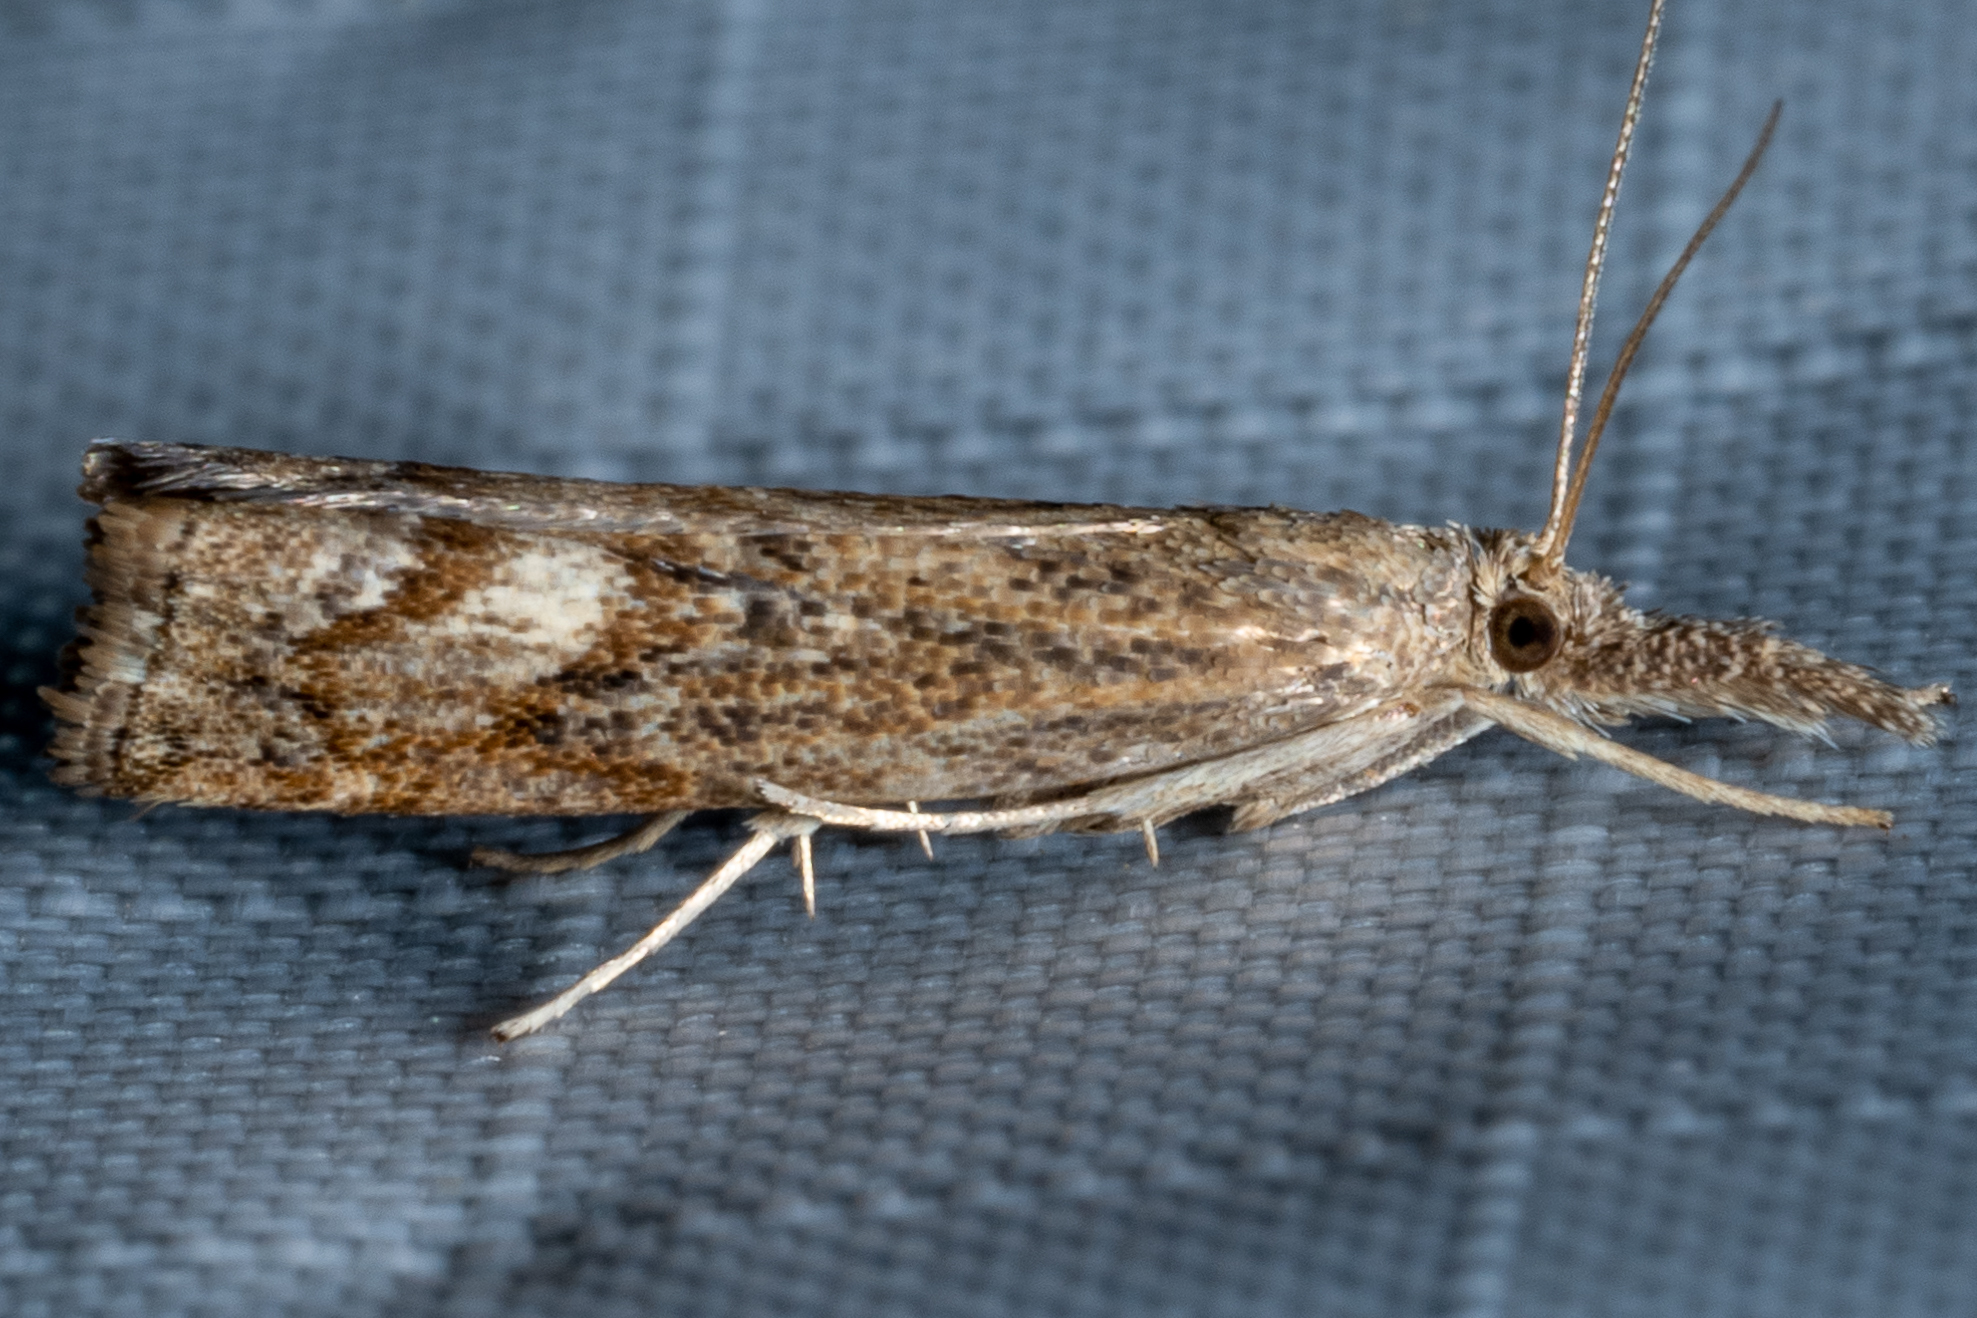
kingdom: Animalia
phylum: Arthropoda
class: Insecta
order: Lepidoptera
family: Crambidae
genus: Neodactria
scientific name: Neodactria luteolellus
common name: Mottled grass-veneer
